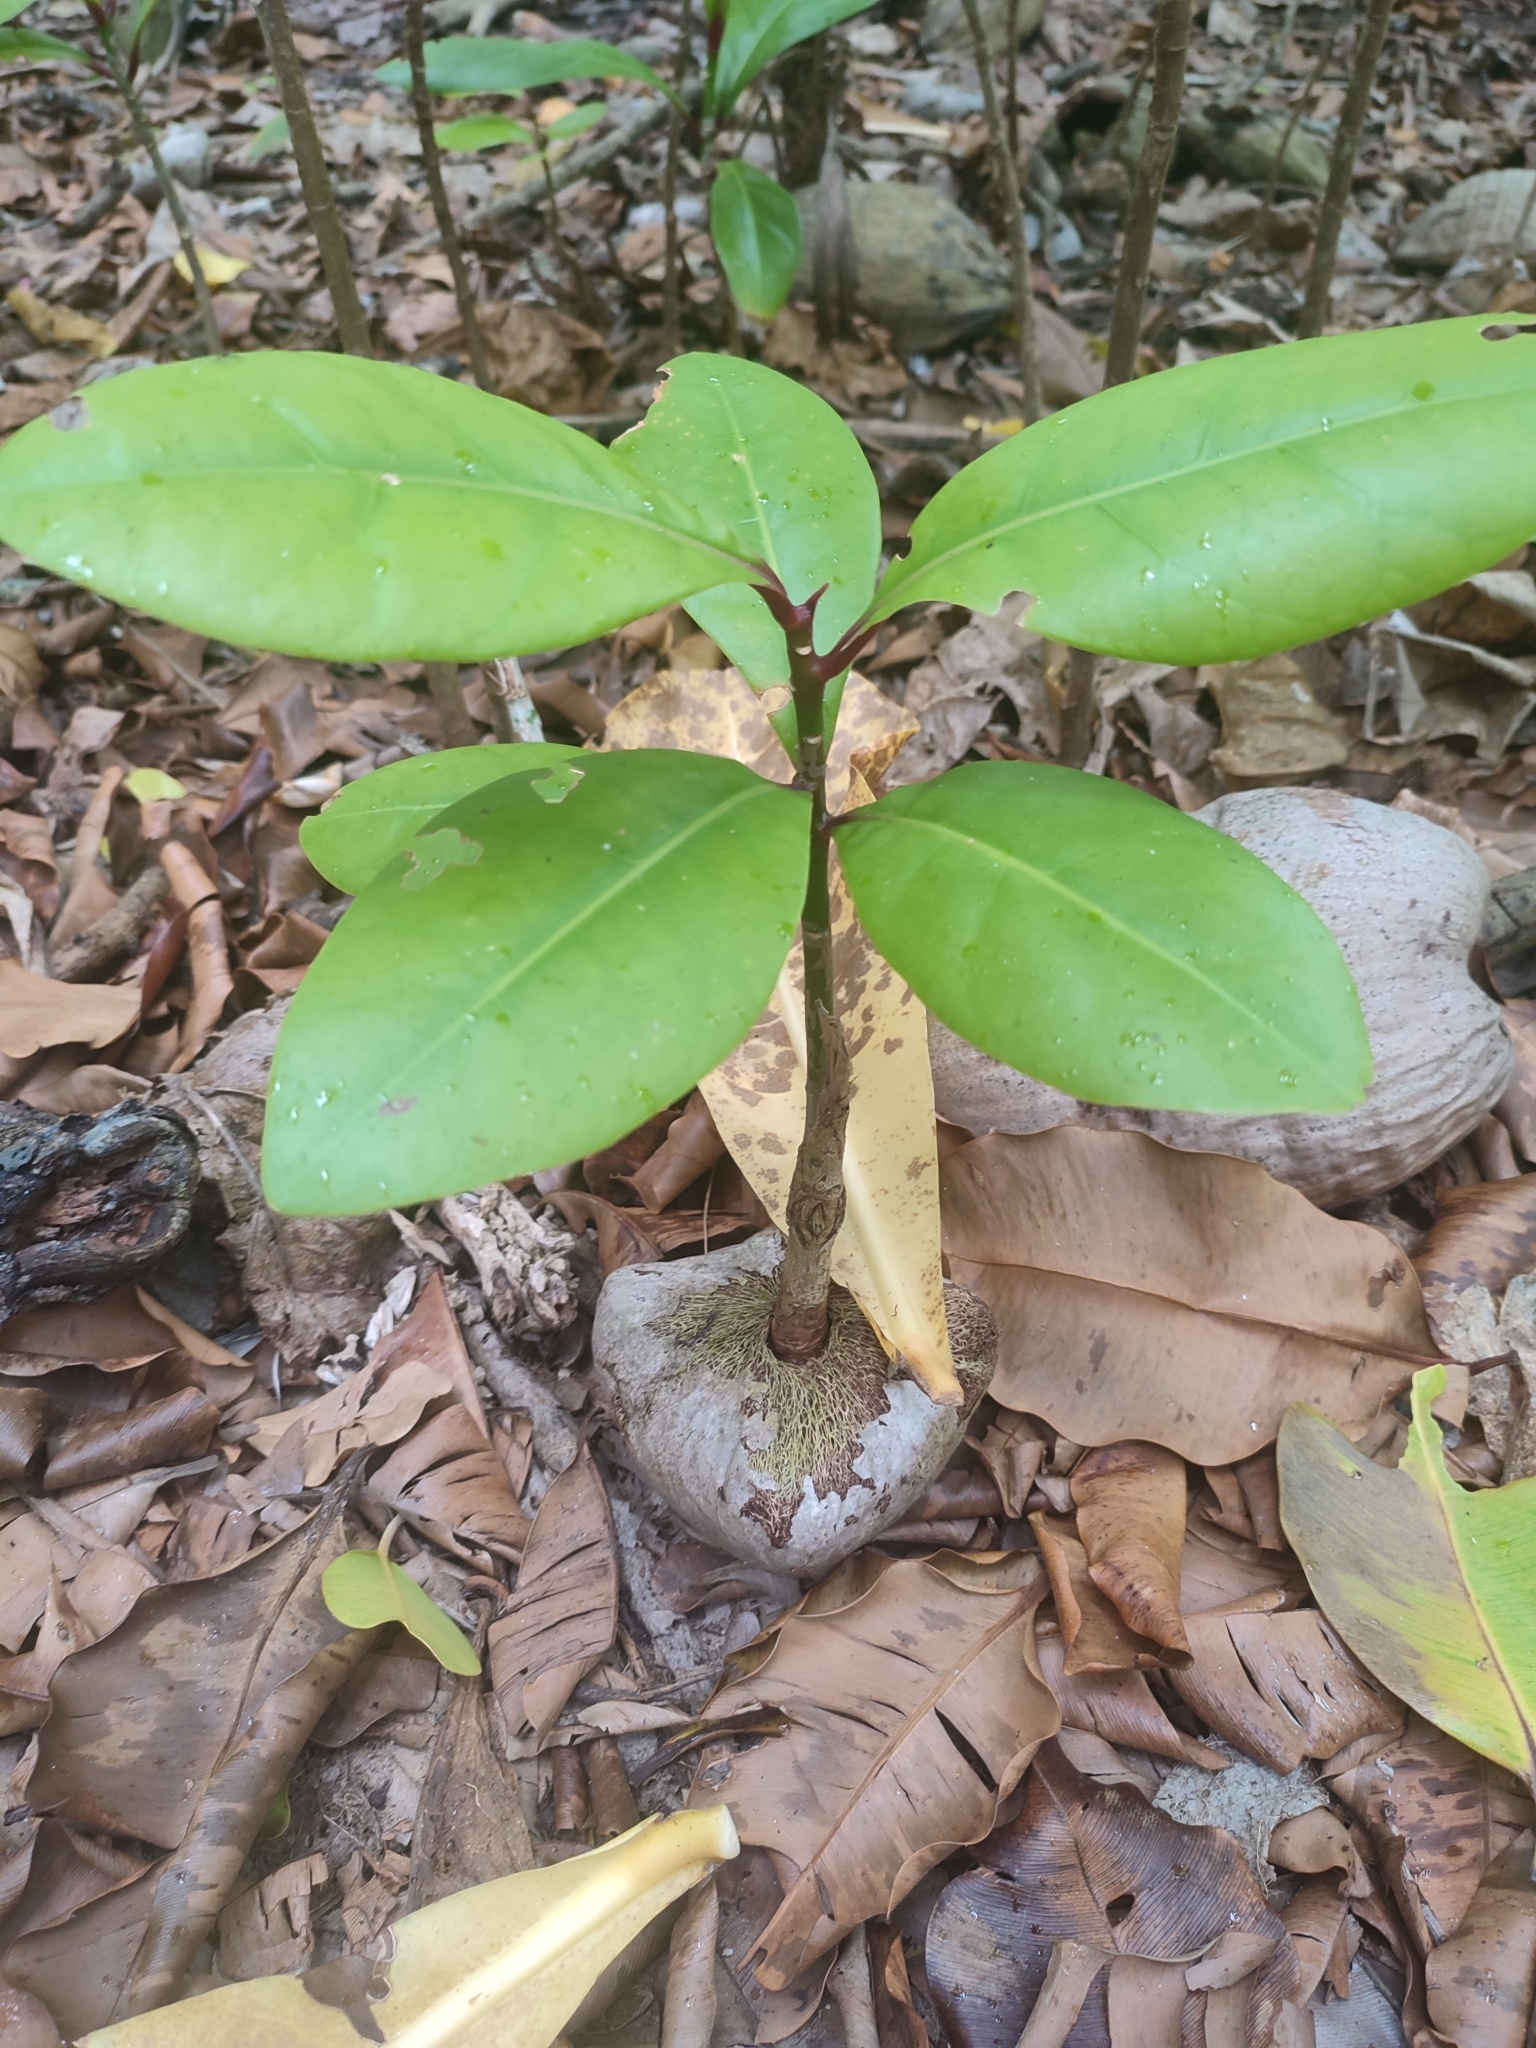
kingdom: Plantae
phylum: Tracheophyta
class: Magnoliopsida
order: Ericales
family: Lecythidaceae
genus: Barringtonia
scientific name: Barringtonia asiatica
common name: Mango-pine
